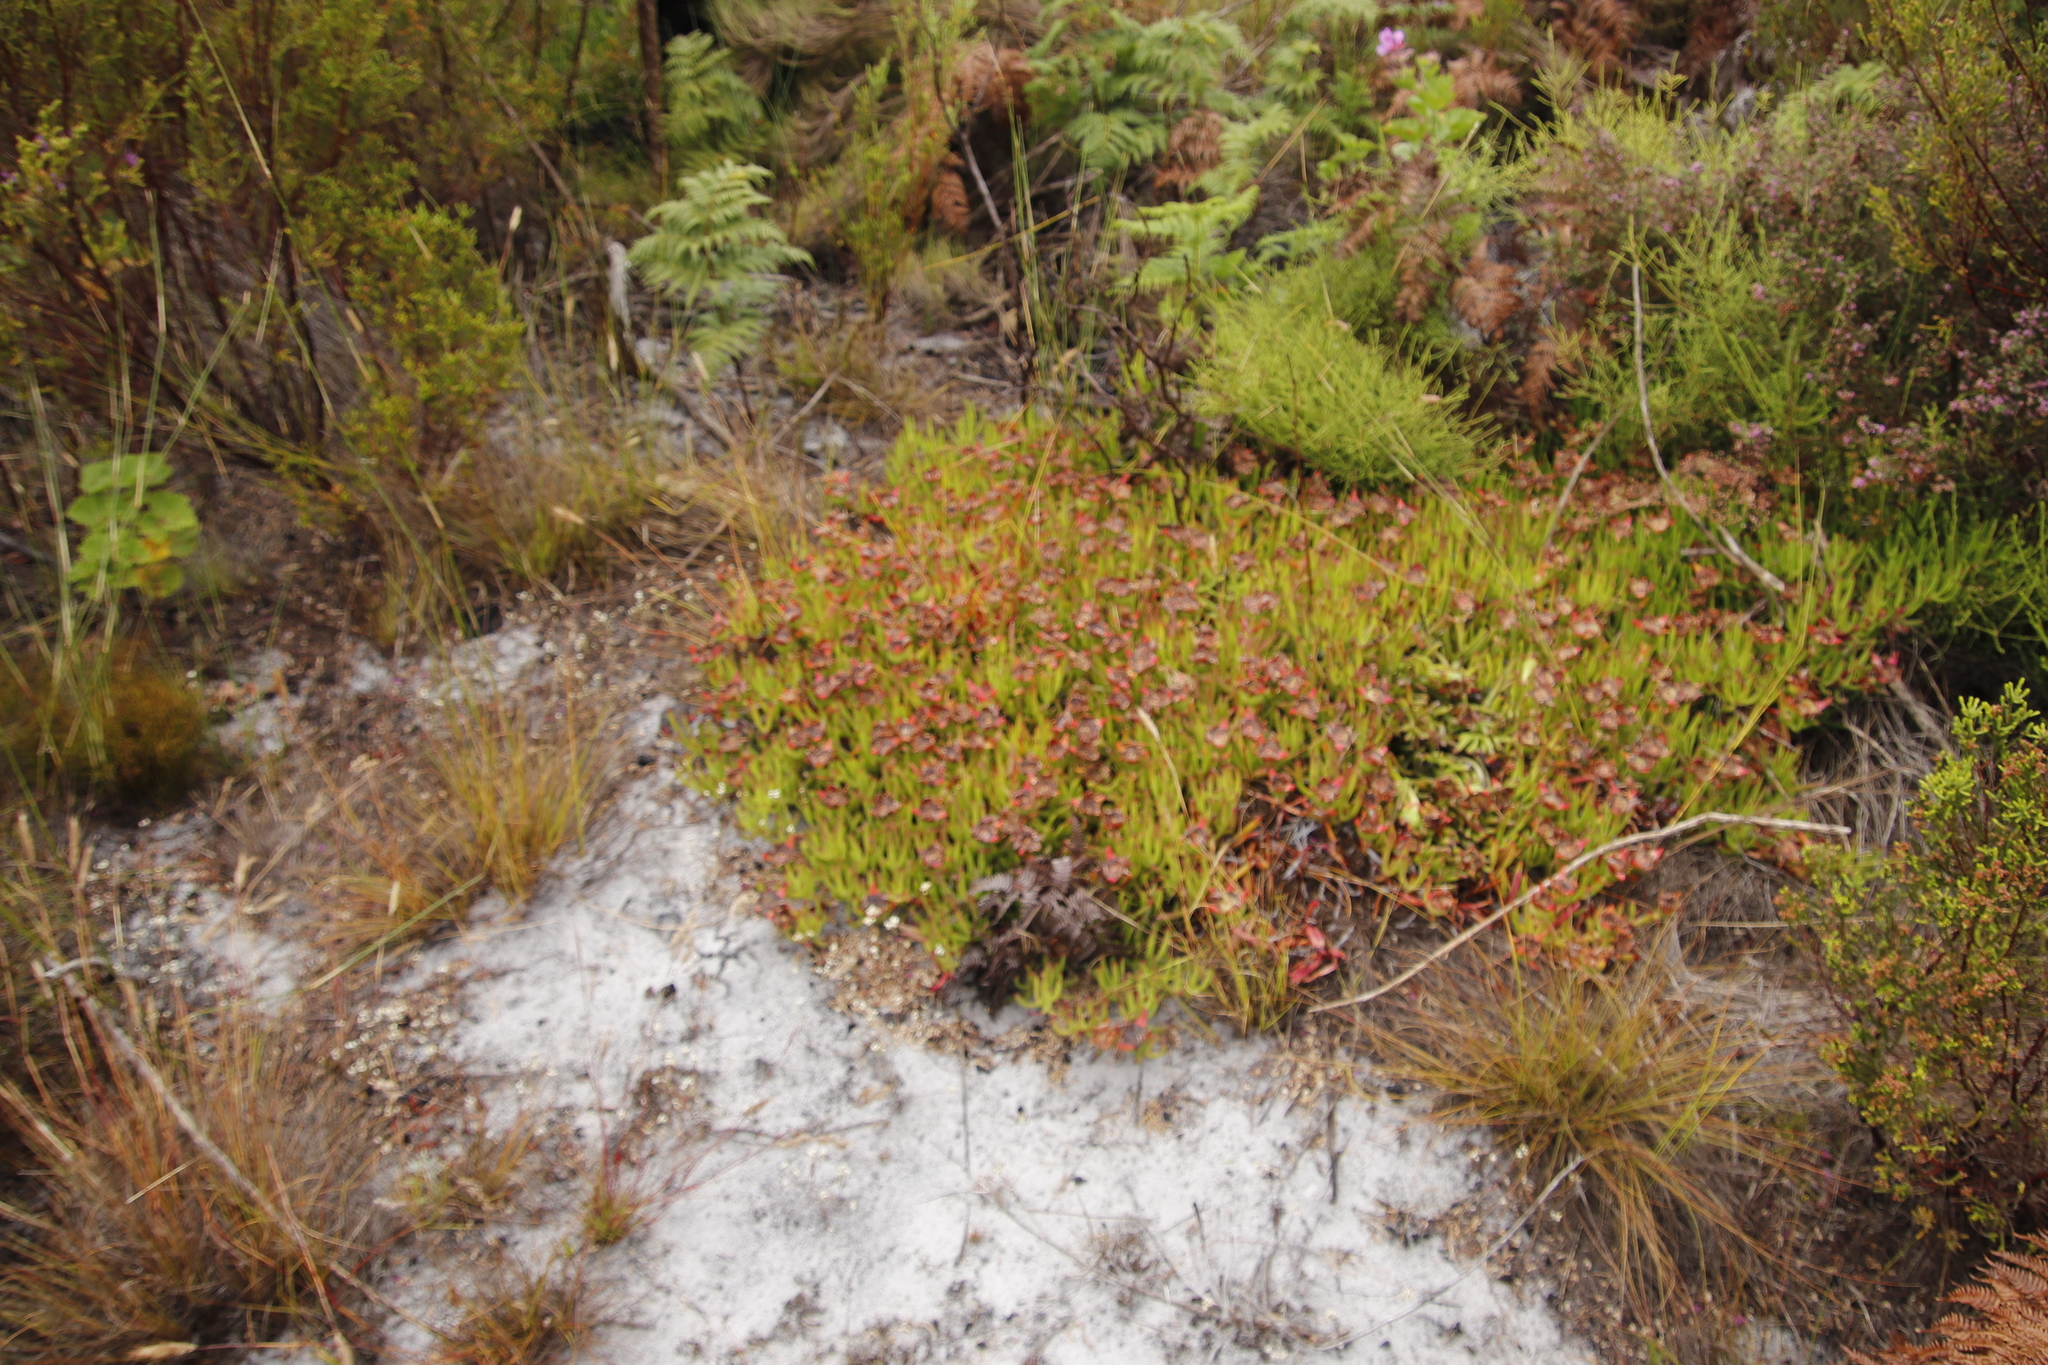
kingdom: Plantae
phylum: Tracheophyta
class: Magnoliopsida
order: Caryophyllales
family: Aizoaceae
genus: Carpobrotus
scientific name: Carpobrotus edulis
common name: Hottentot-fig
